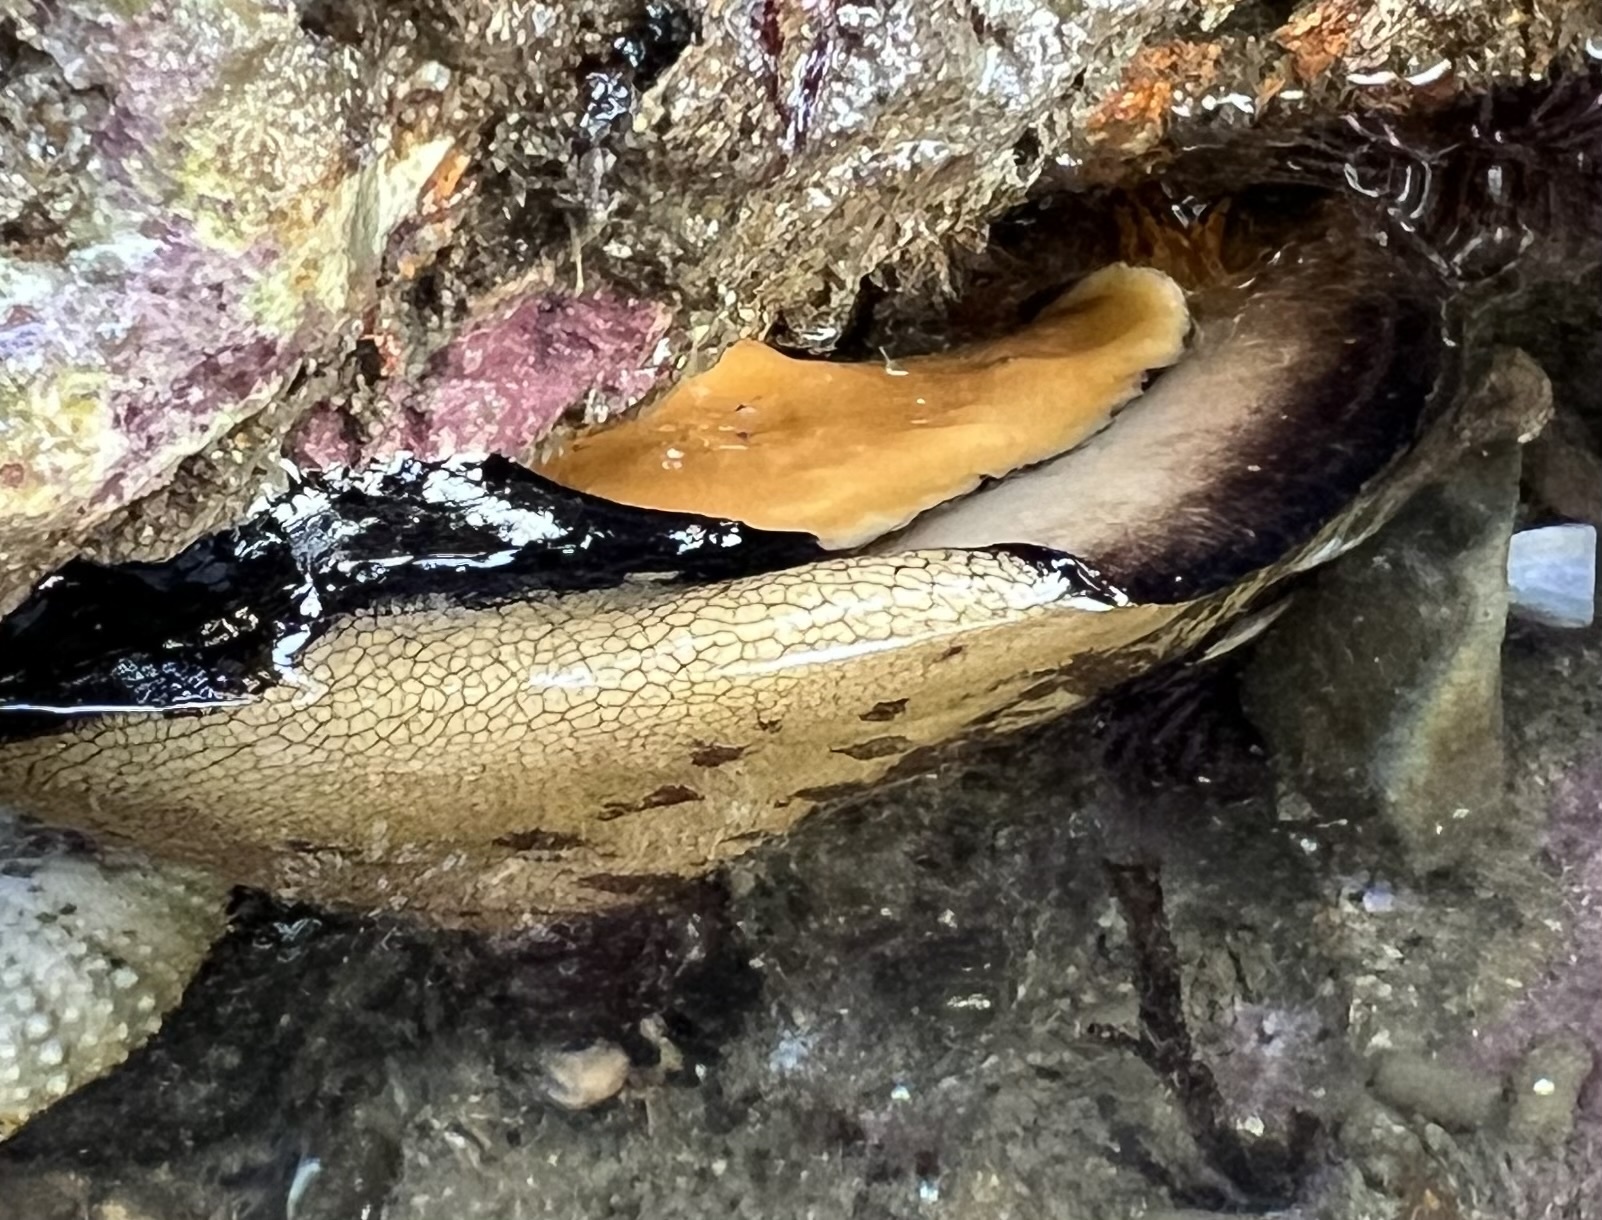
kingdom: Animalia
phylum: Mollusca
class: Gastropoda
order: Lepetellida
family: Fissurellidae
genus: Megathura
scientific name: Megathura crenulata
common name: Giant keyhole limpet
